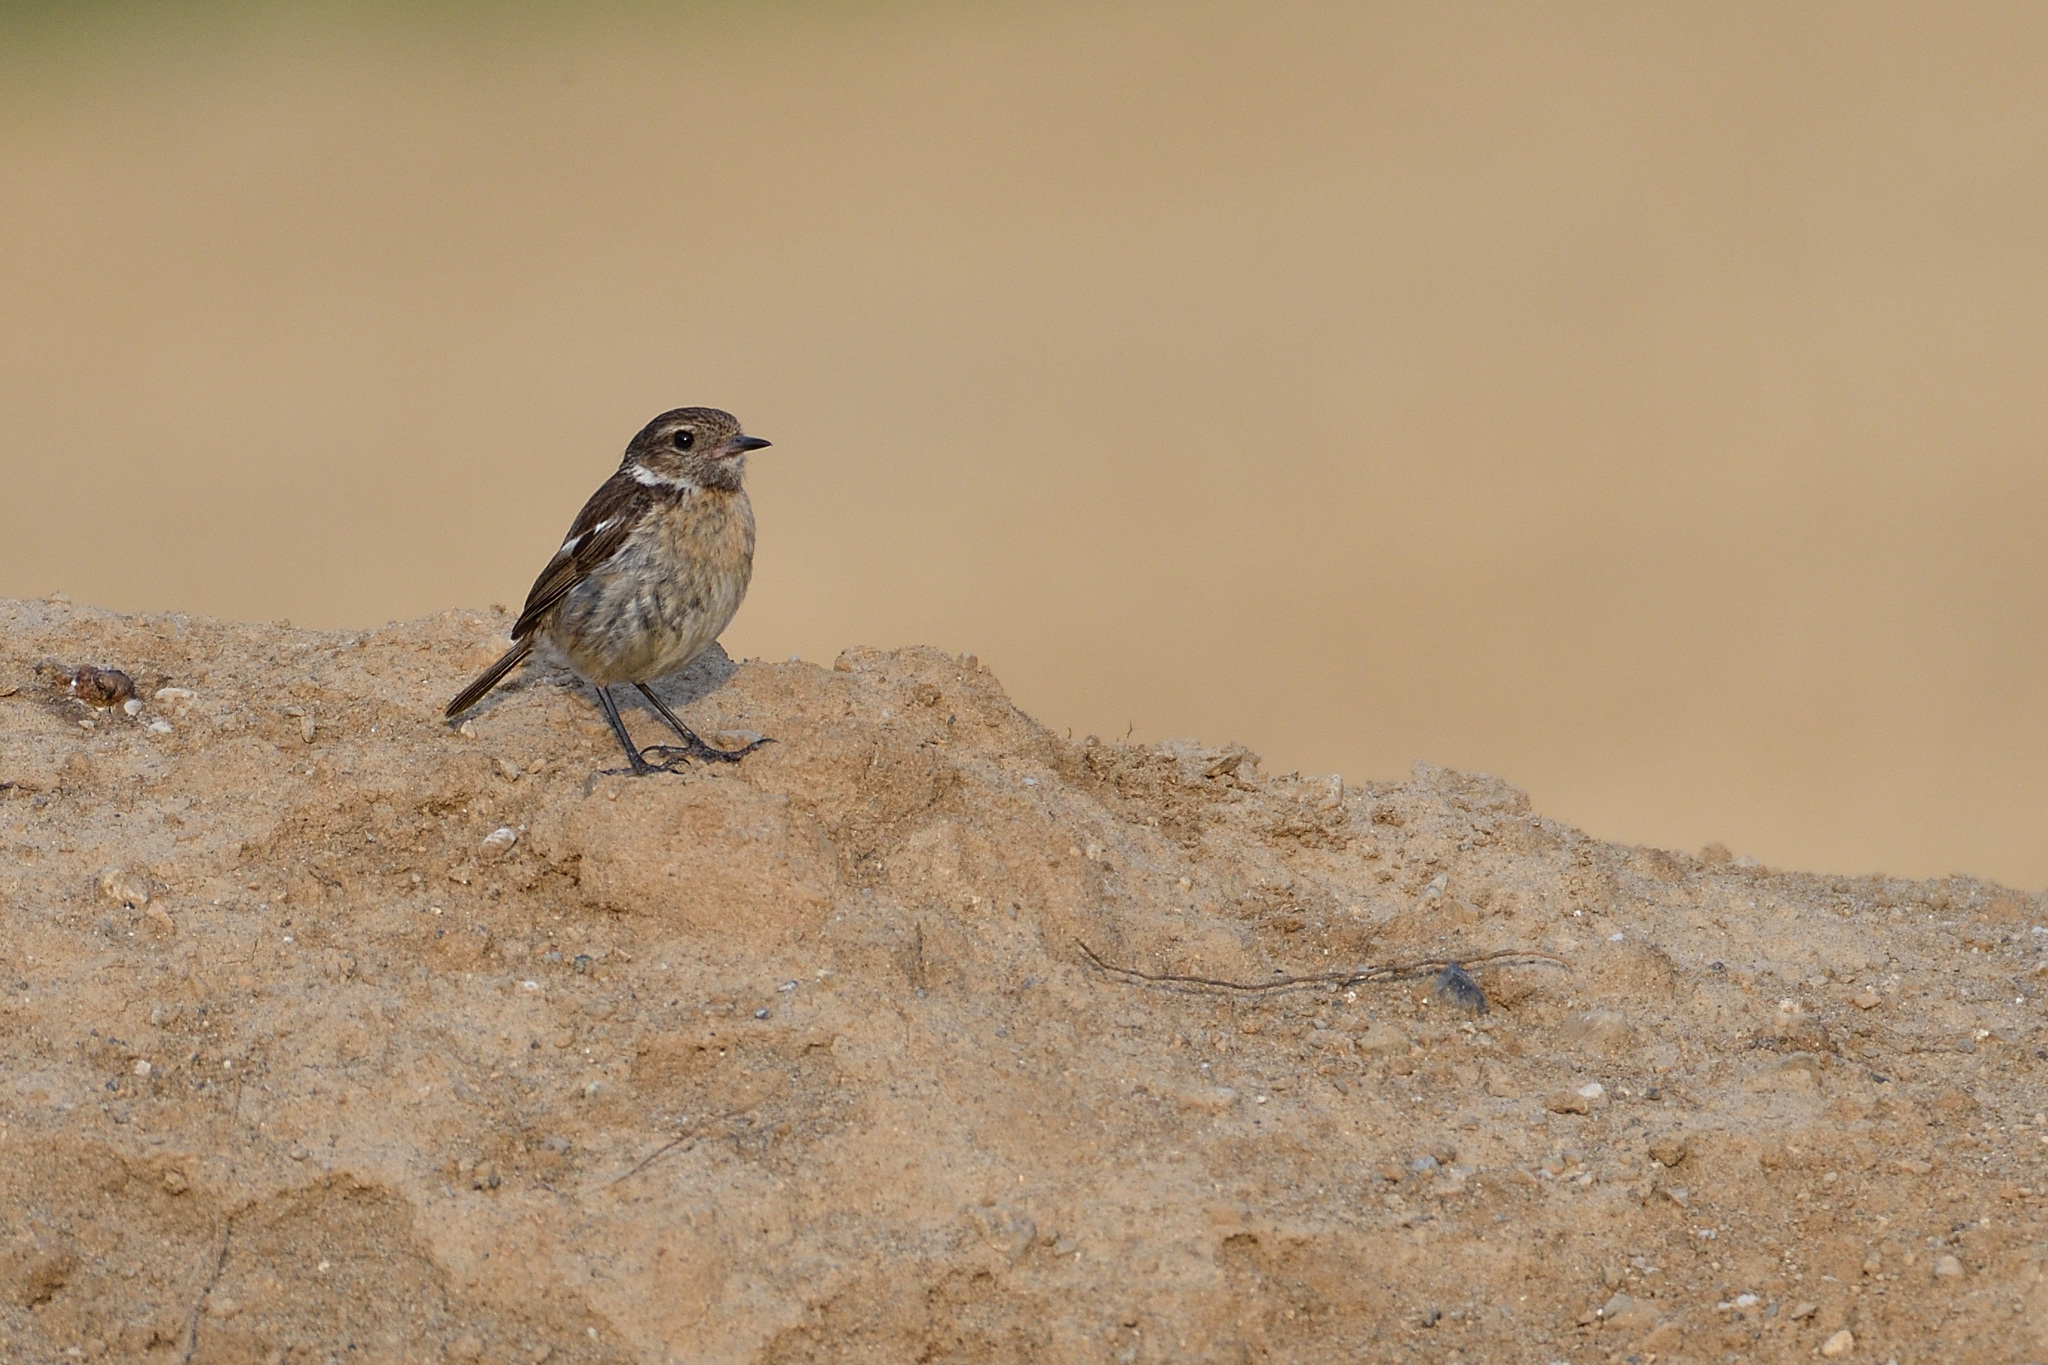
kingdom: Animalia
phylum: Chordata
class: Aves
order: Passeriformes
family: Muscicapidae
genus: Saxicola
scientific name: Saxicola rubicola
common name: European stonechat
